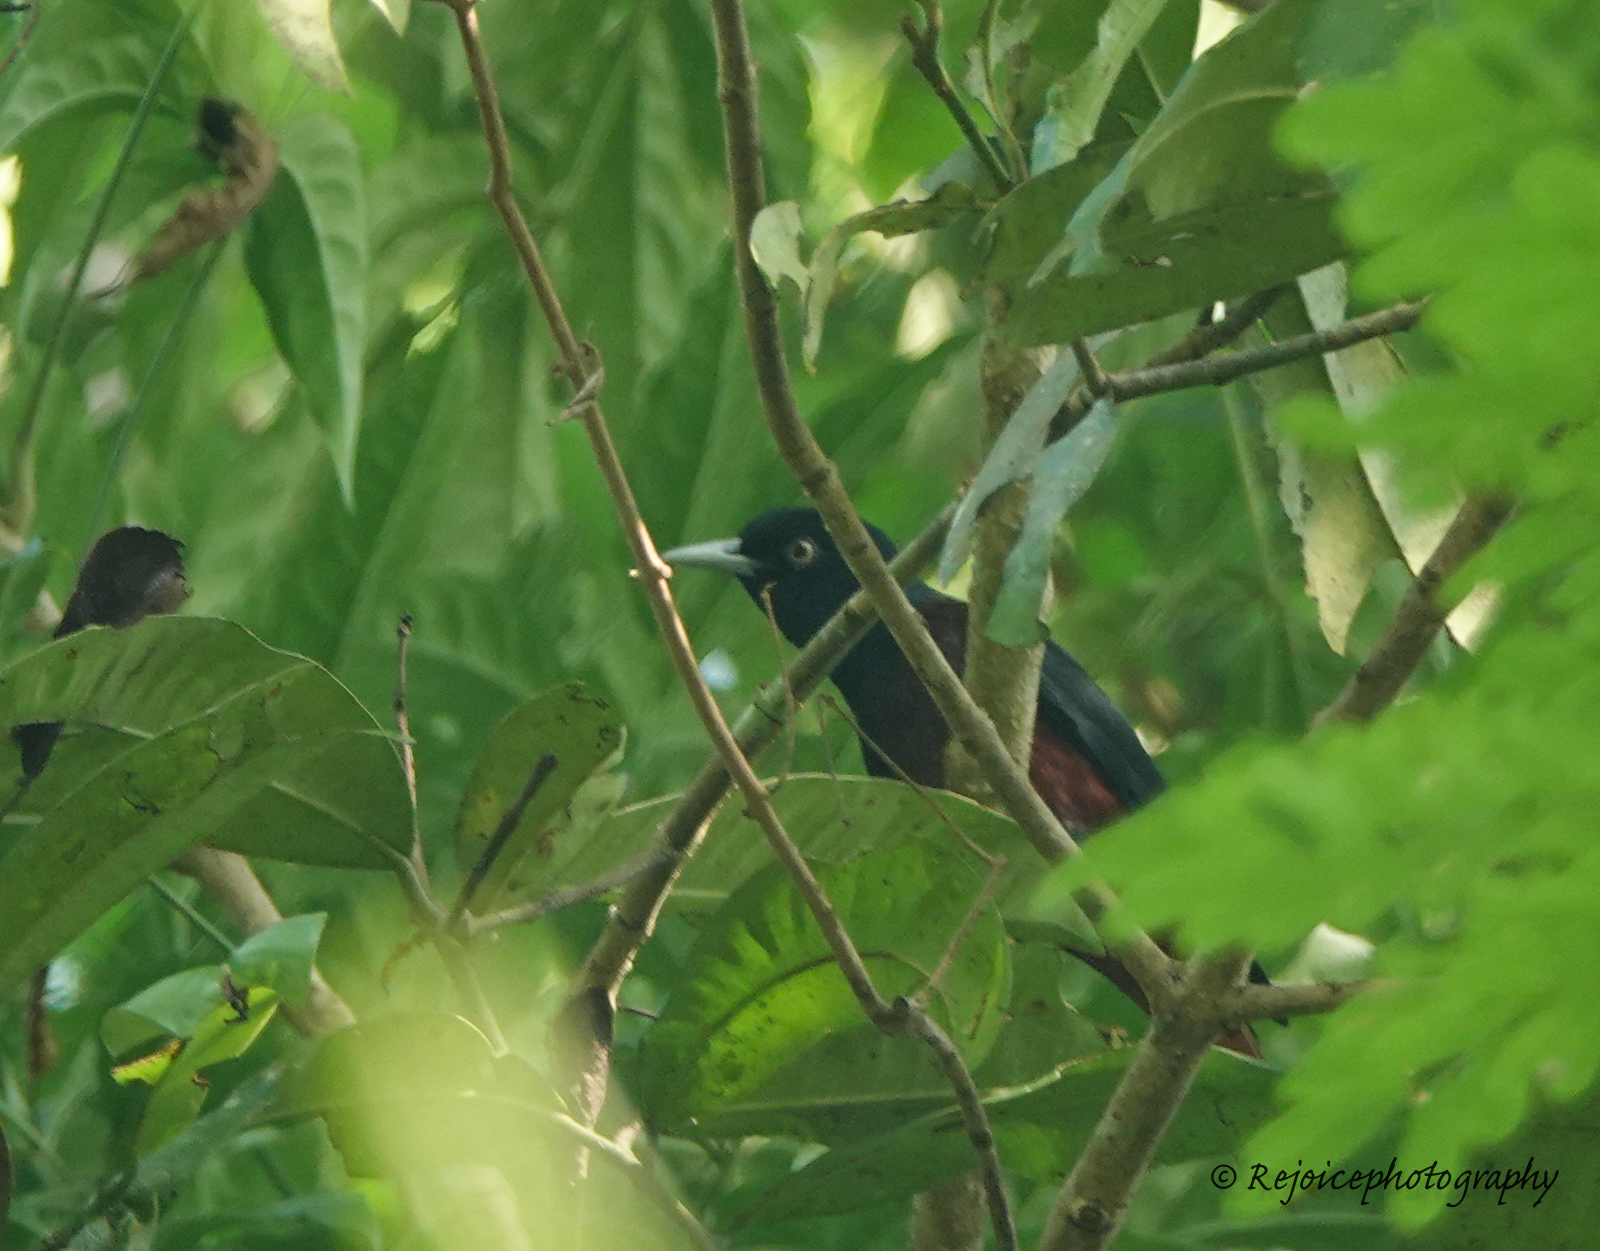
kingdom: Animalia
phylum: Chordata
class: Aves
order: Passeriformes
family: Oriolidae
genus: Oriolus
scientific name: Oriolus traillii
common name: Maroon oriole
